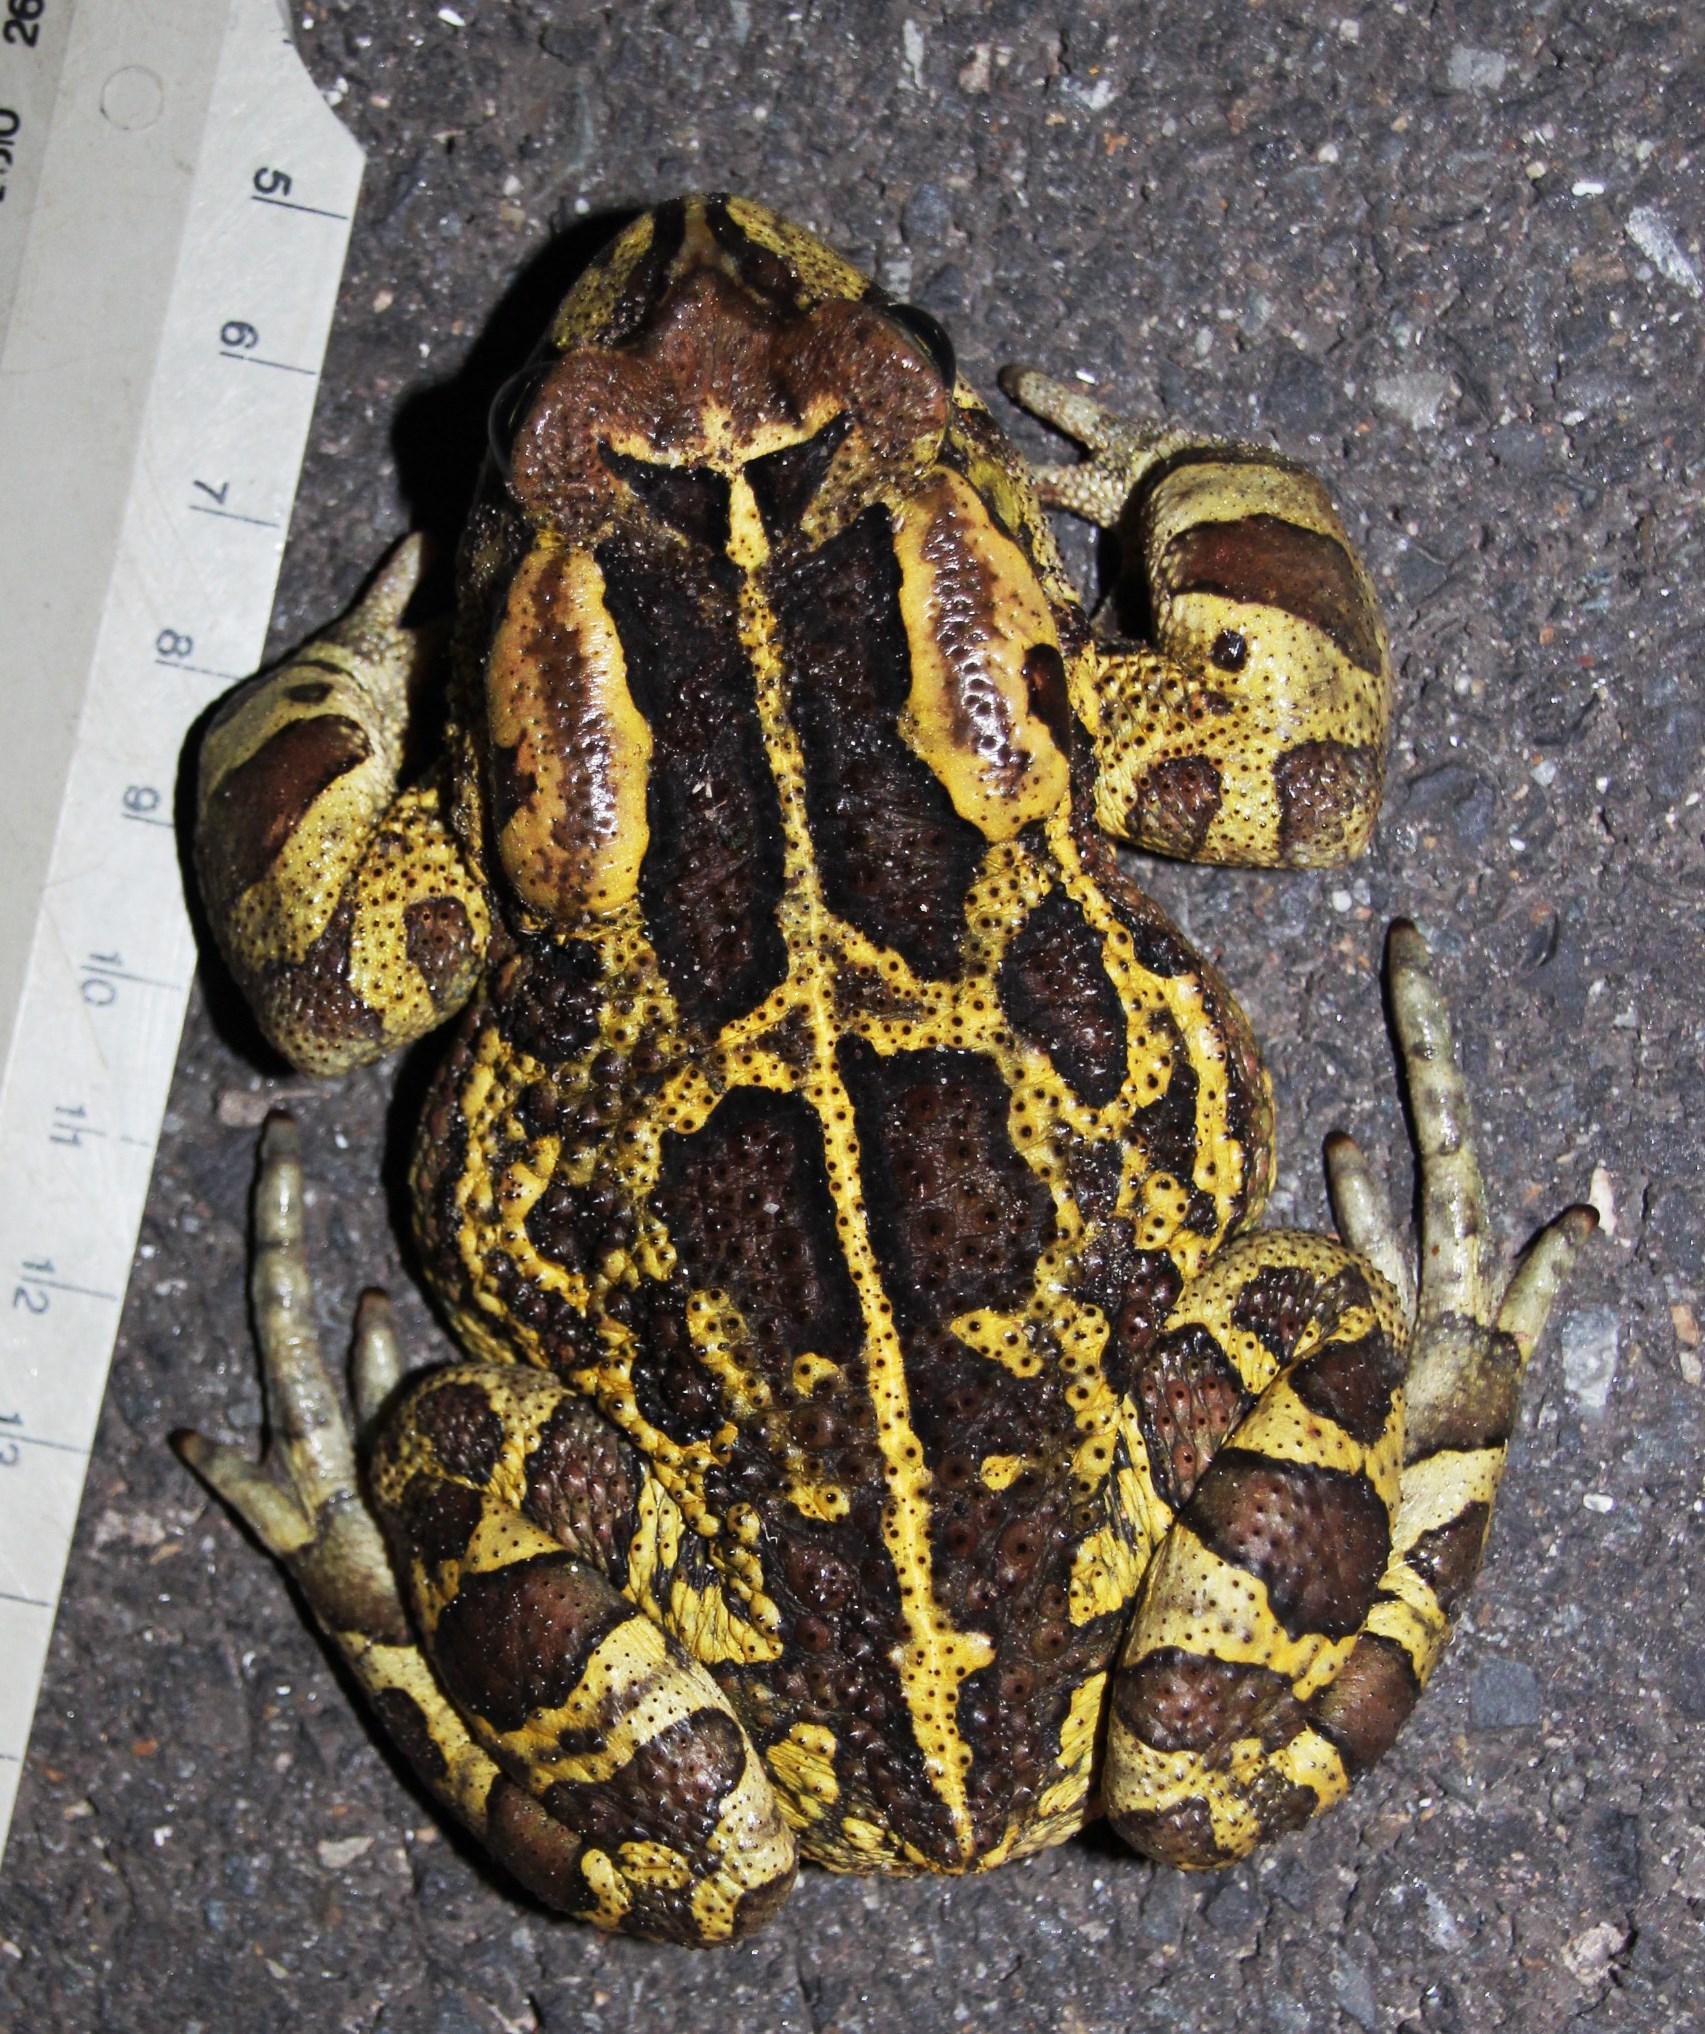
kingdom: Animalia
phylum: Chordata
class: Amphibia
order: Anura
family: Bufonidae
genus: Sclerophrys
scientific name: Sclerophrys pantherina
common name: Panther toad
